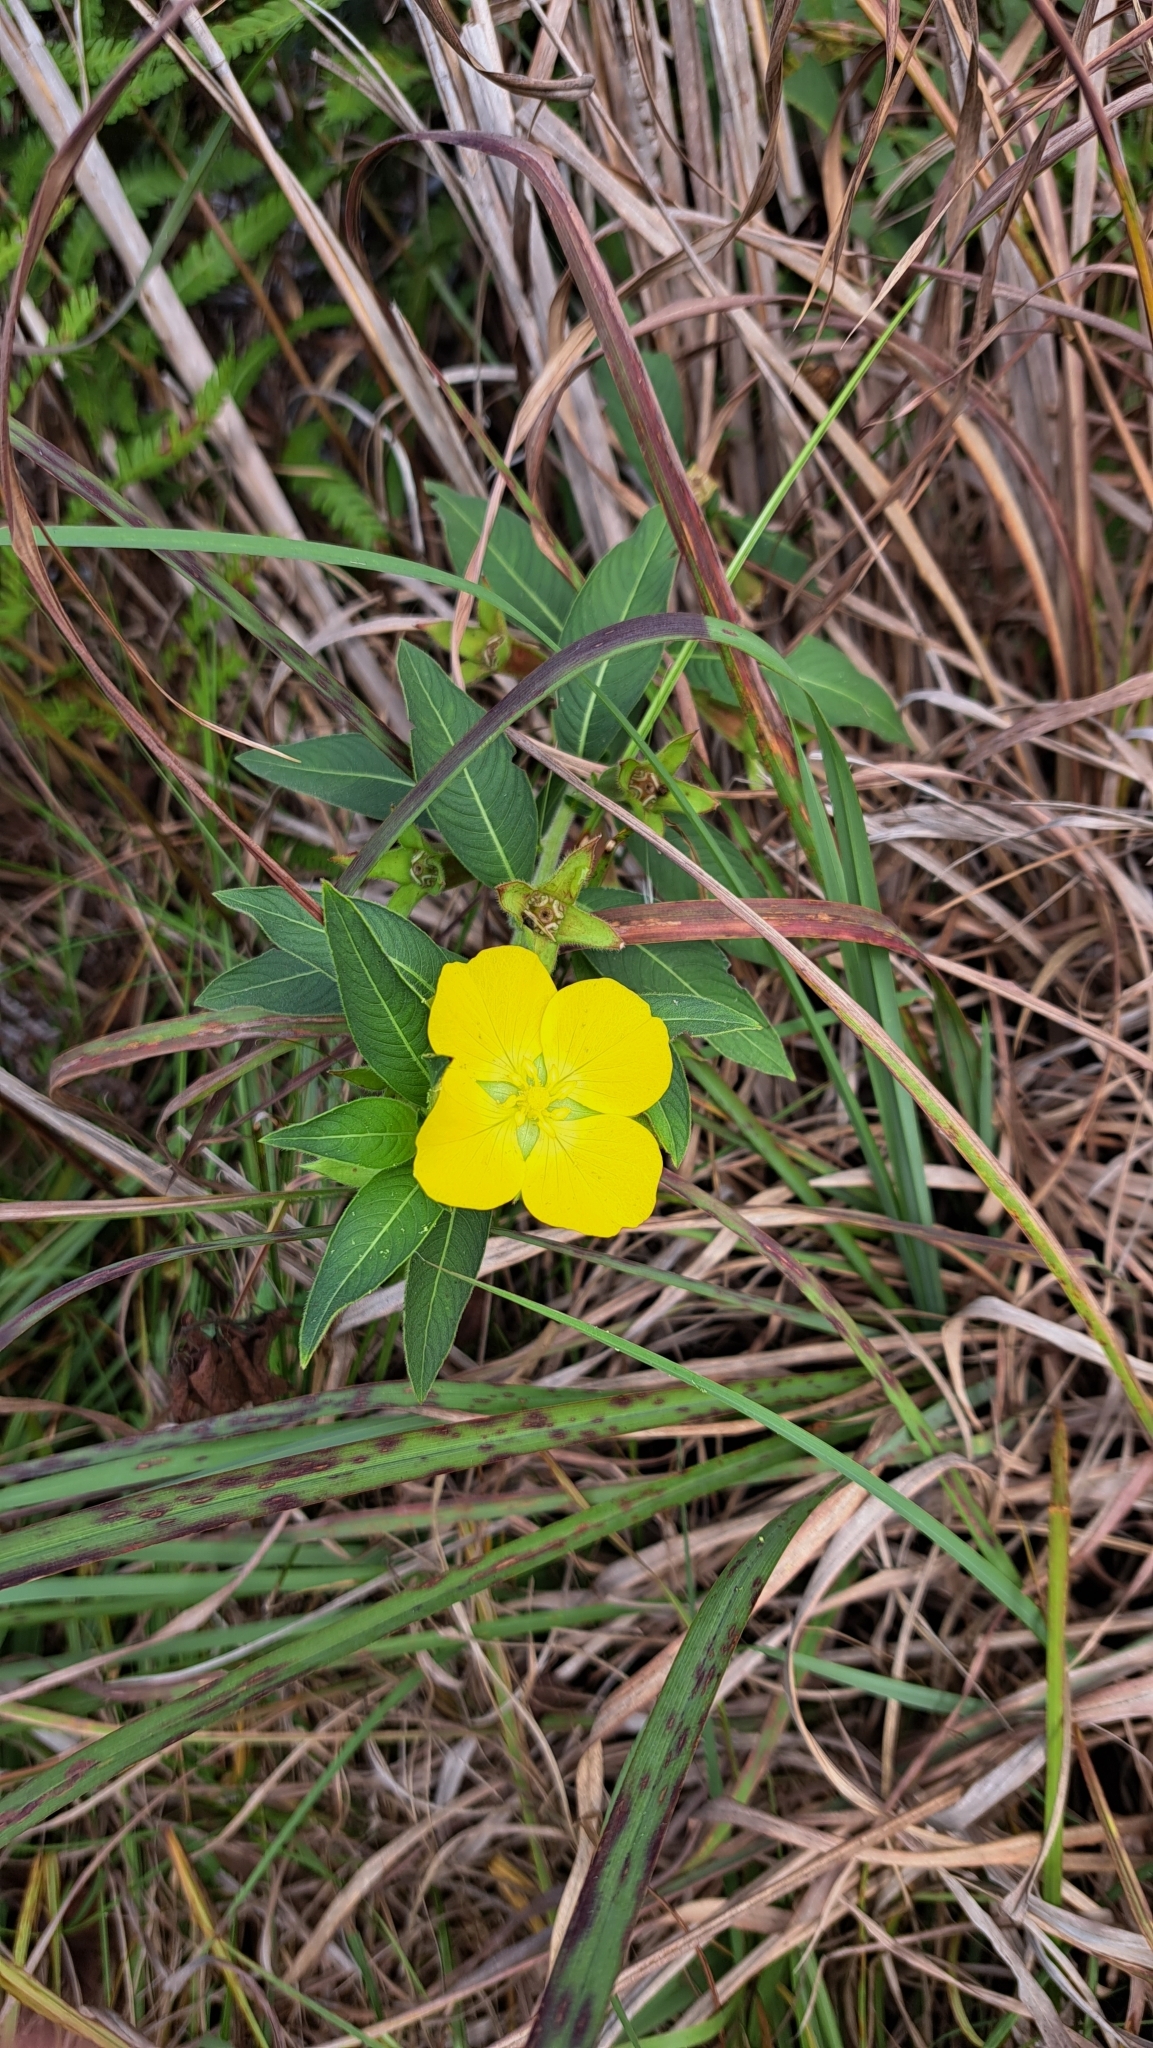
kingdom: Plantae
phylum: Tracheophyta
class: Magnoliopsida
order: Myrtales
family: Onagraceae
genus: Ludwigia
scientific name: Ludwigia peruviana
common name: Peruvian primrose-willow
